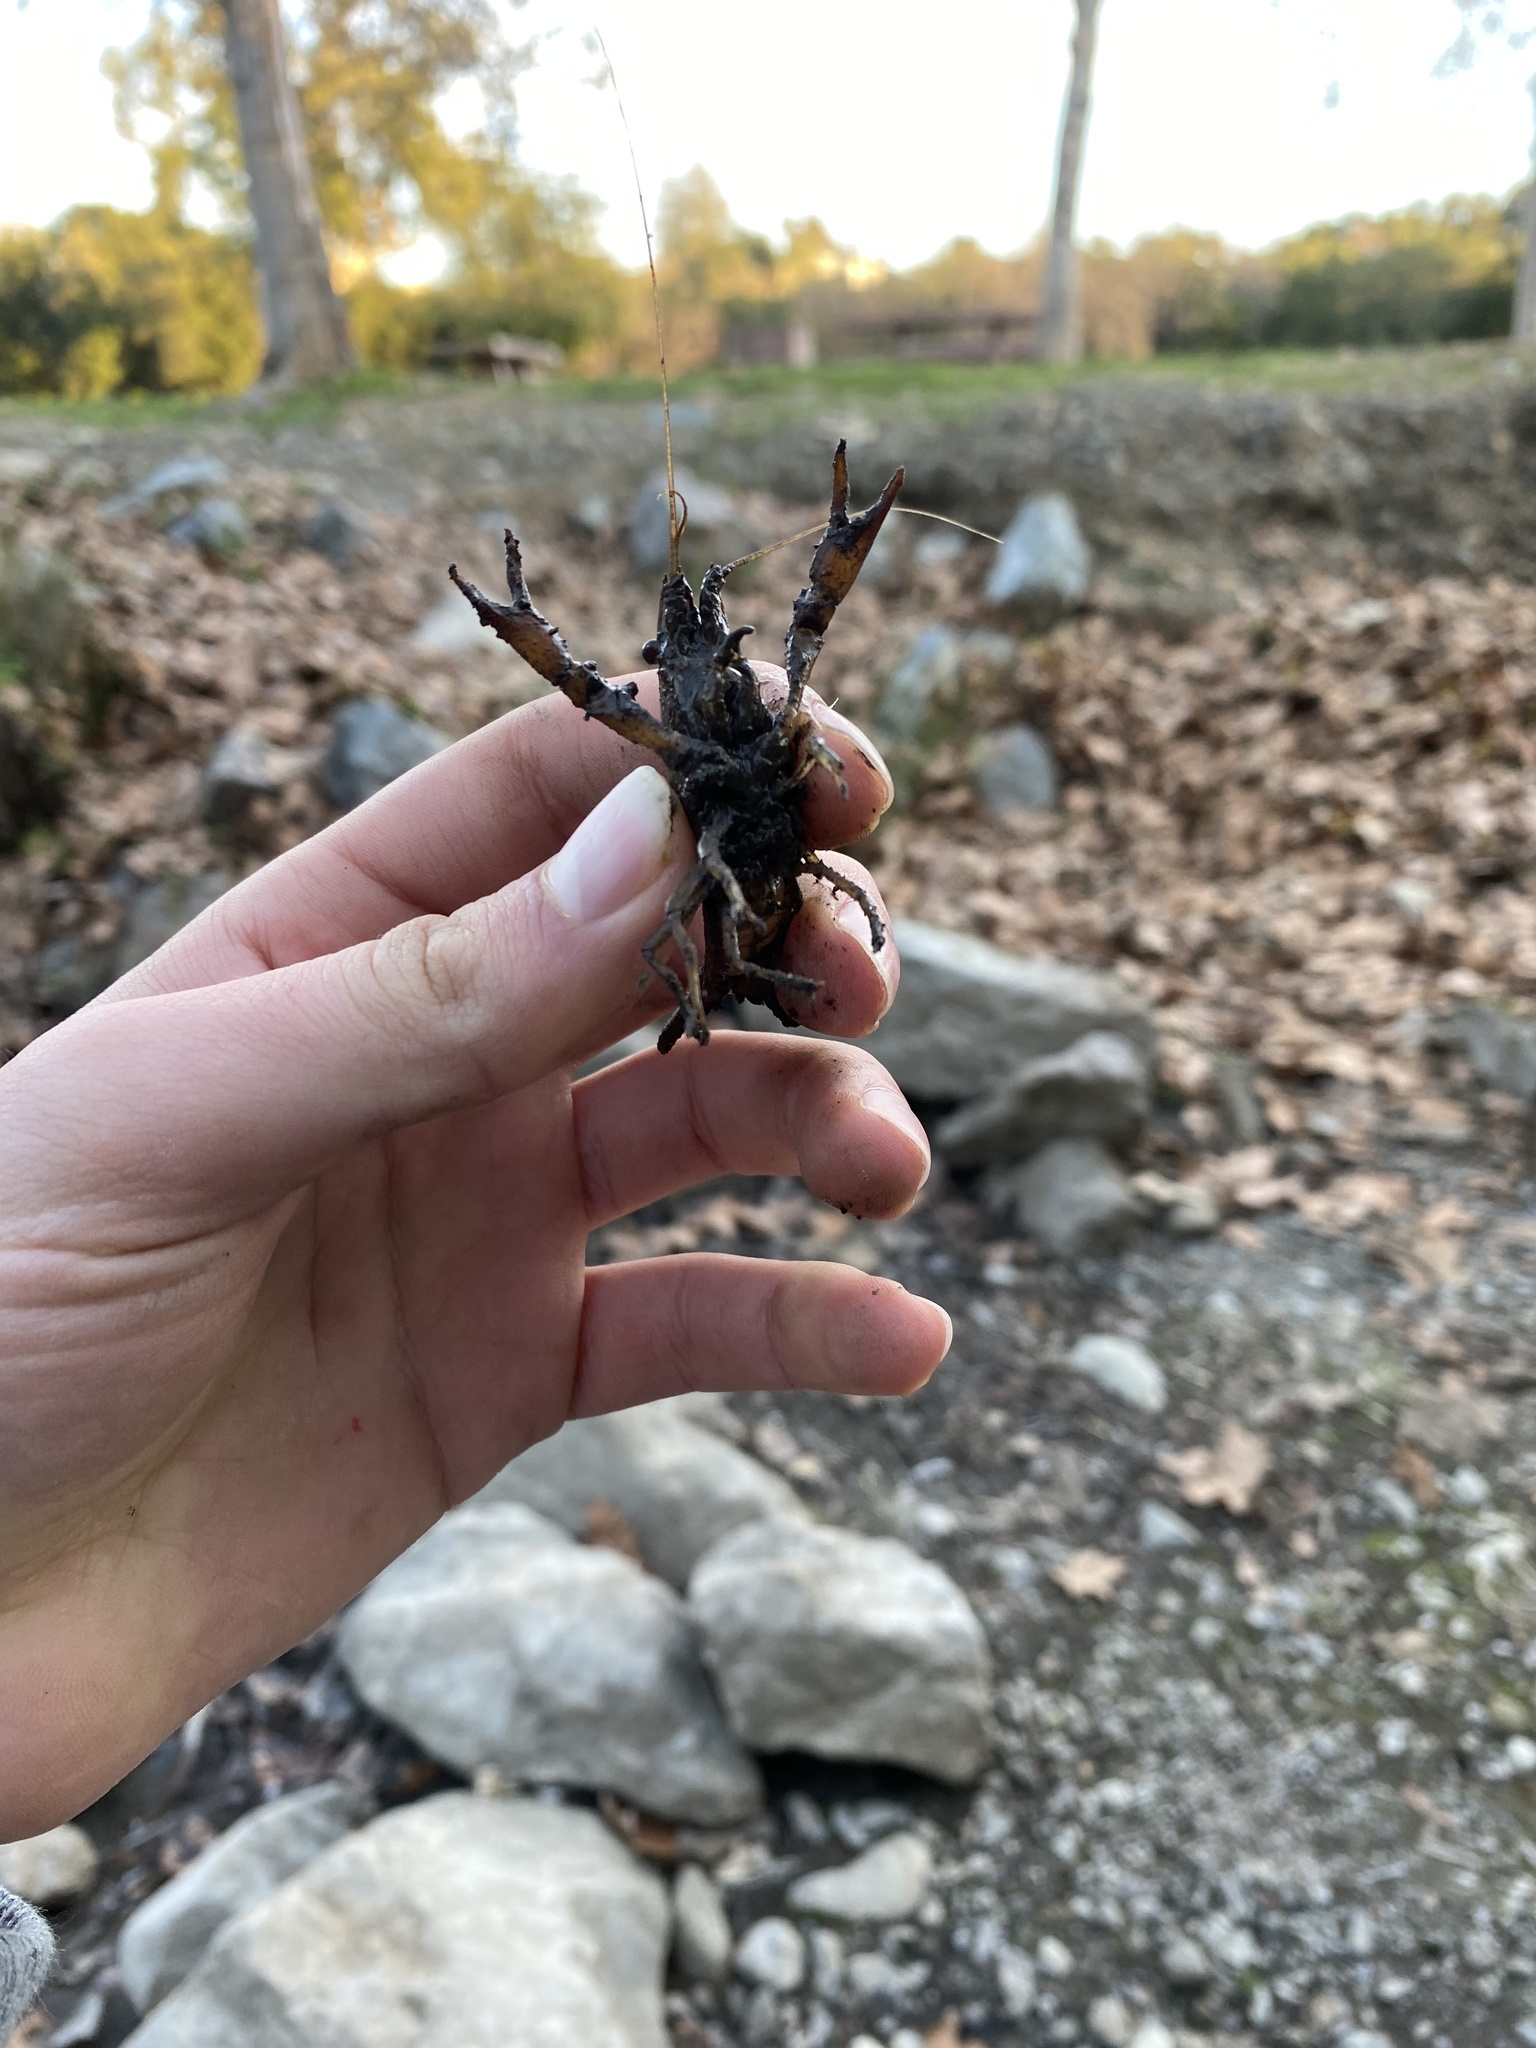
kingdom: Animalia
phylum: Arthropoda
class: Malacostraca
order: Decapoda
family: Cambaridae
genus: Procambarus
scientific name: Procambarus clarkii
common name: Red swamp crayfish
